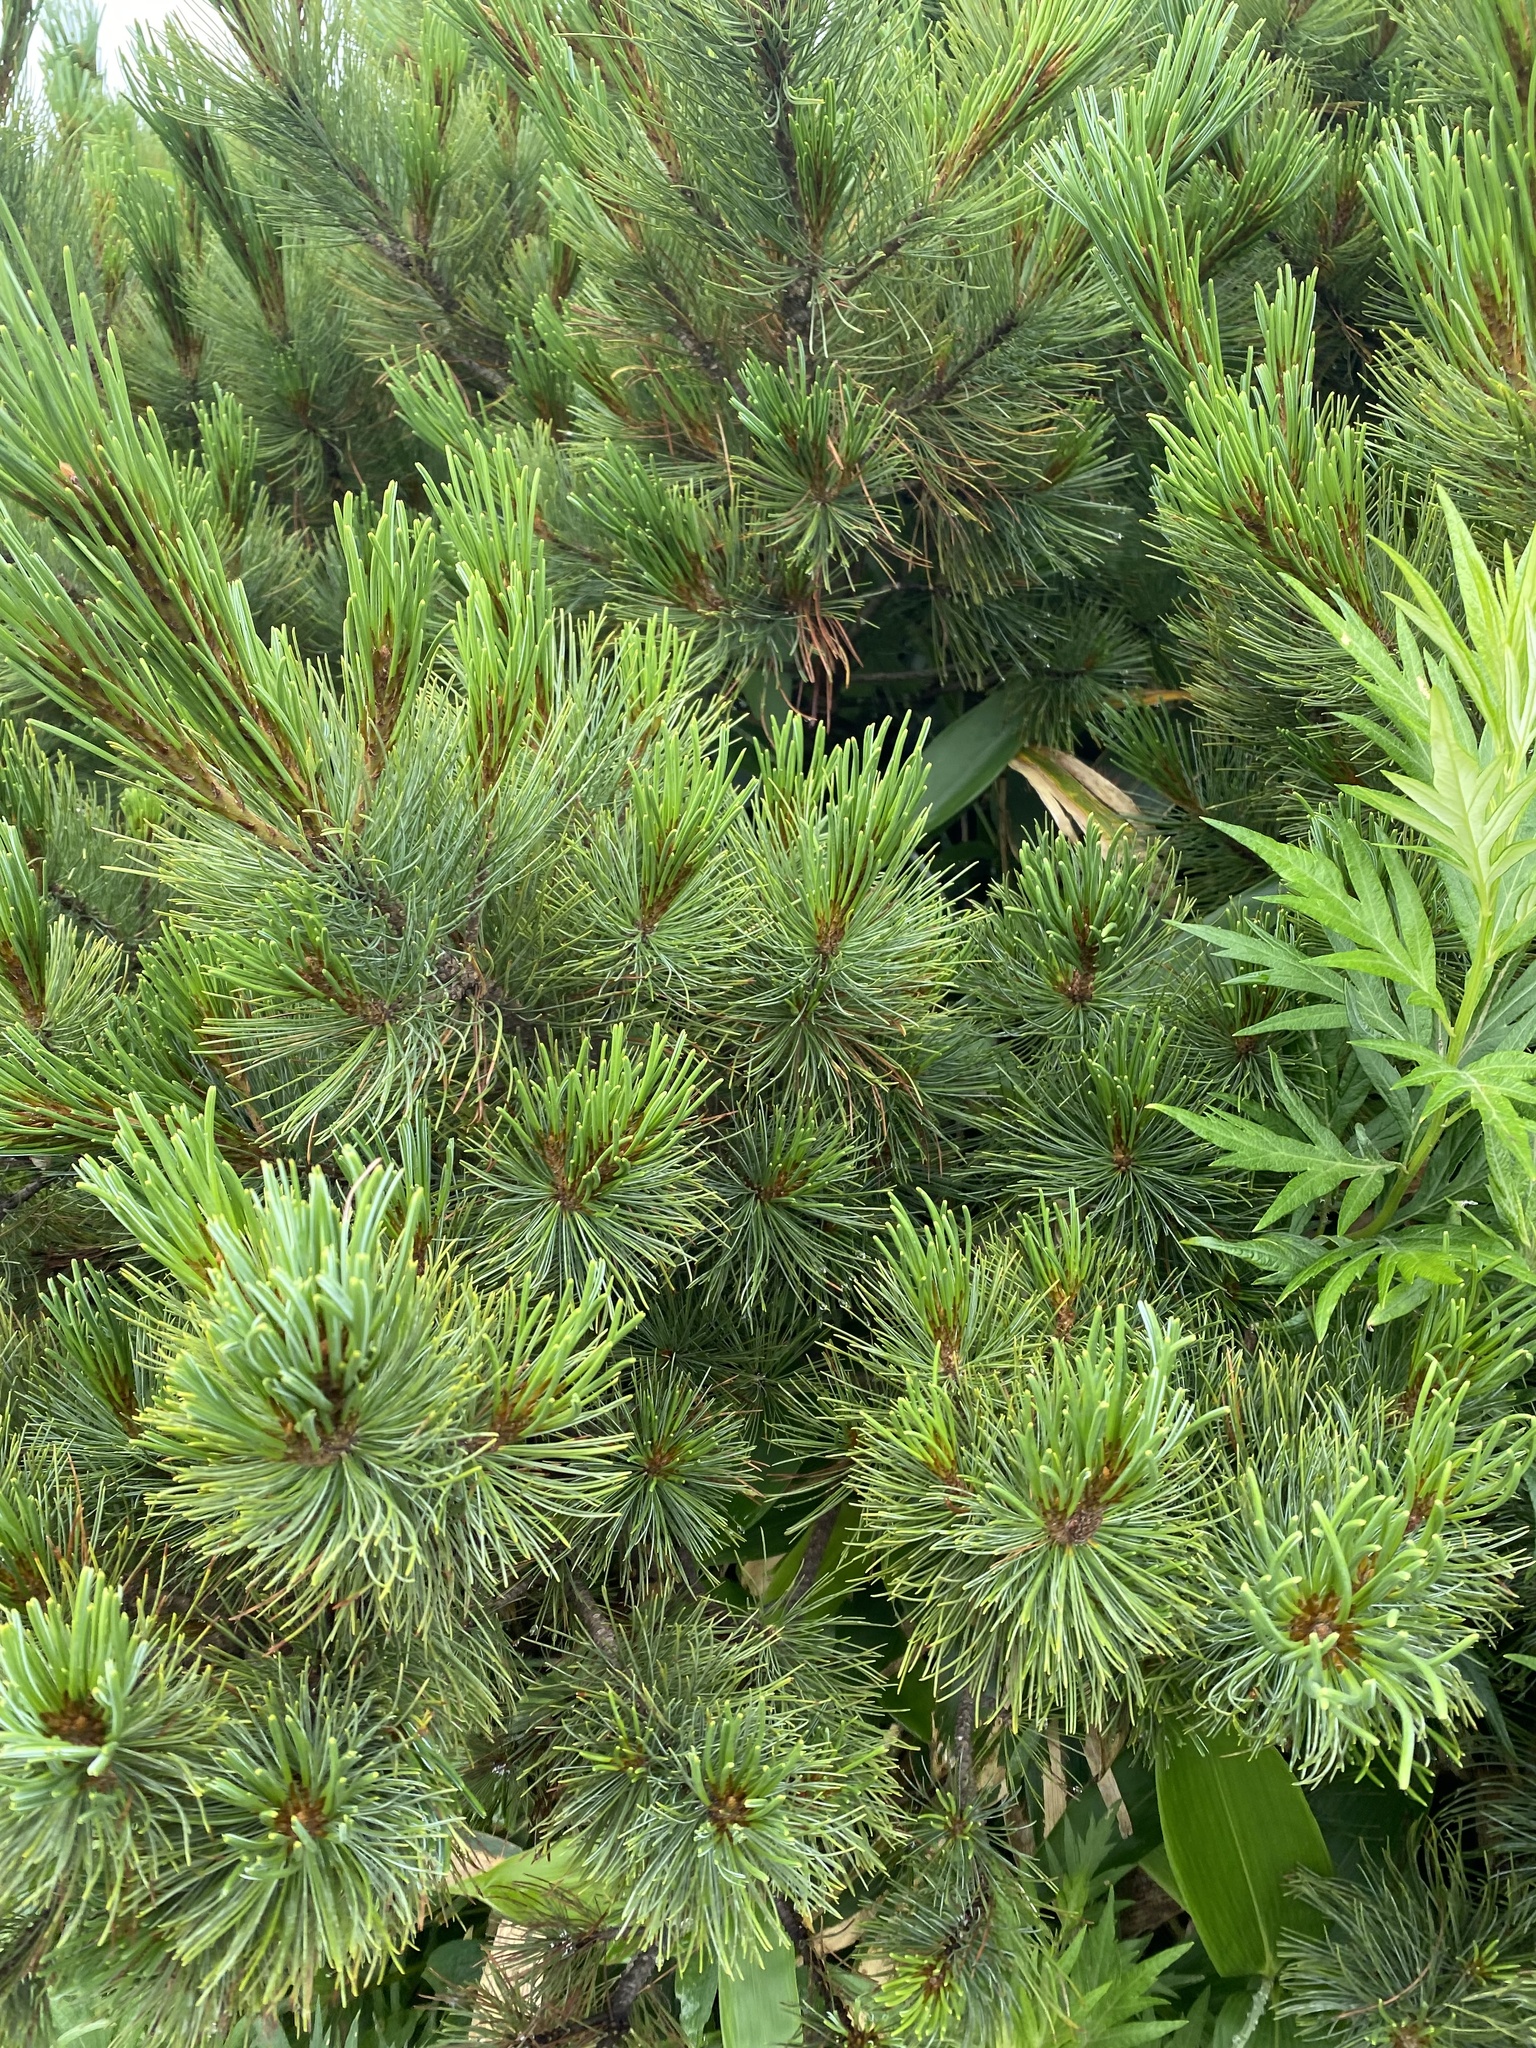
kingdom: Plantae
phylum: Tracheophyta
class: Pinopsida
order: Pinales
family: Pinaceae
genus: Pinus
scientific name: Pinus pumila
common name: Dwarf siberian pine
